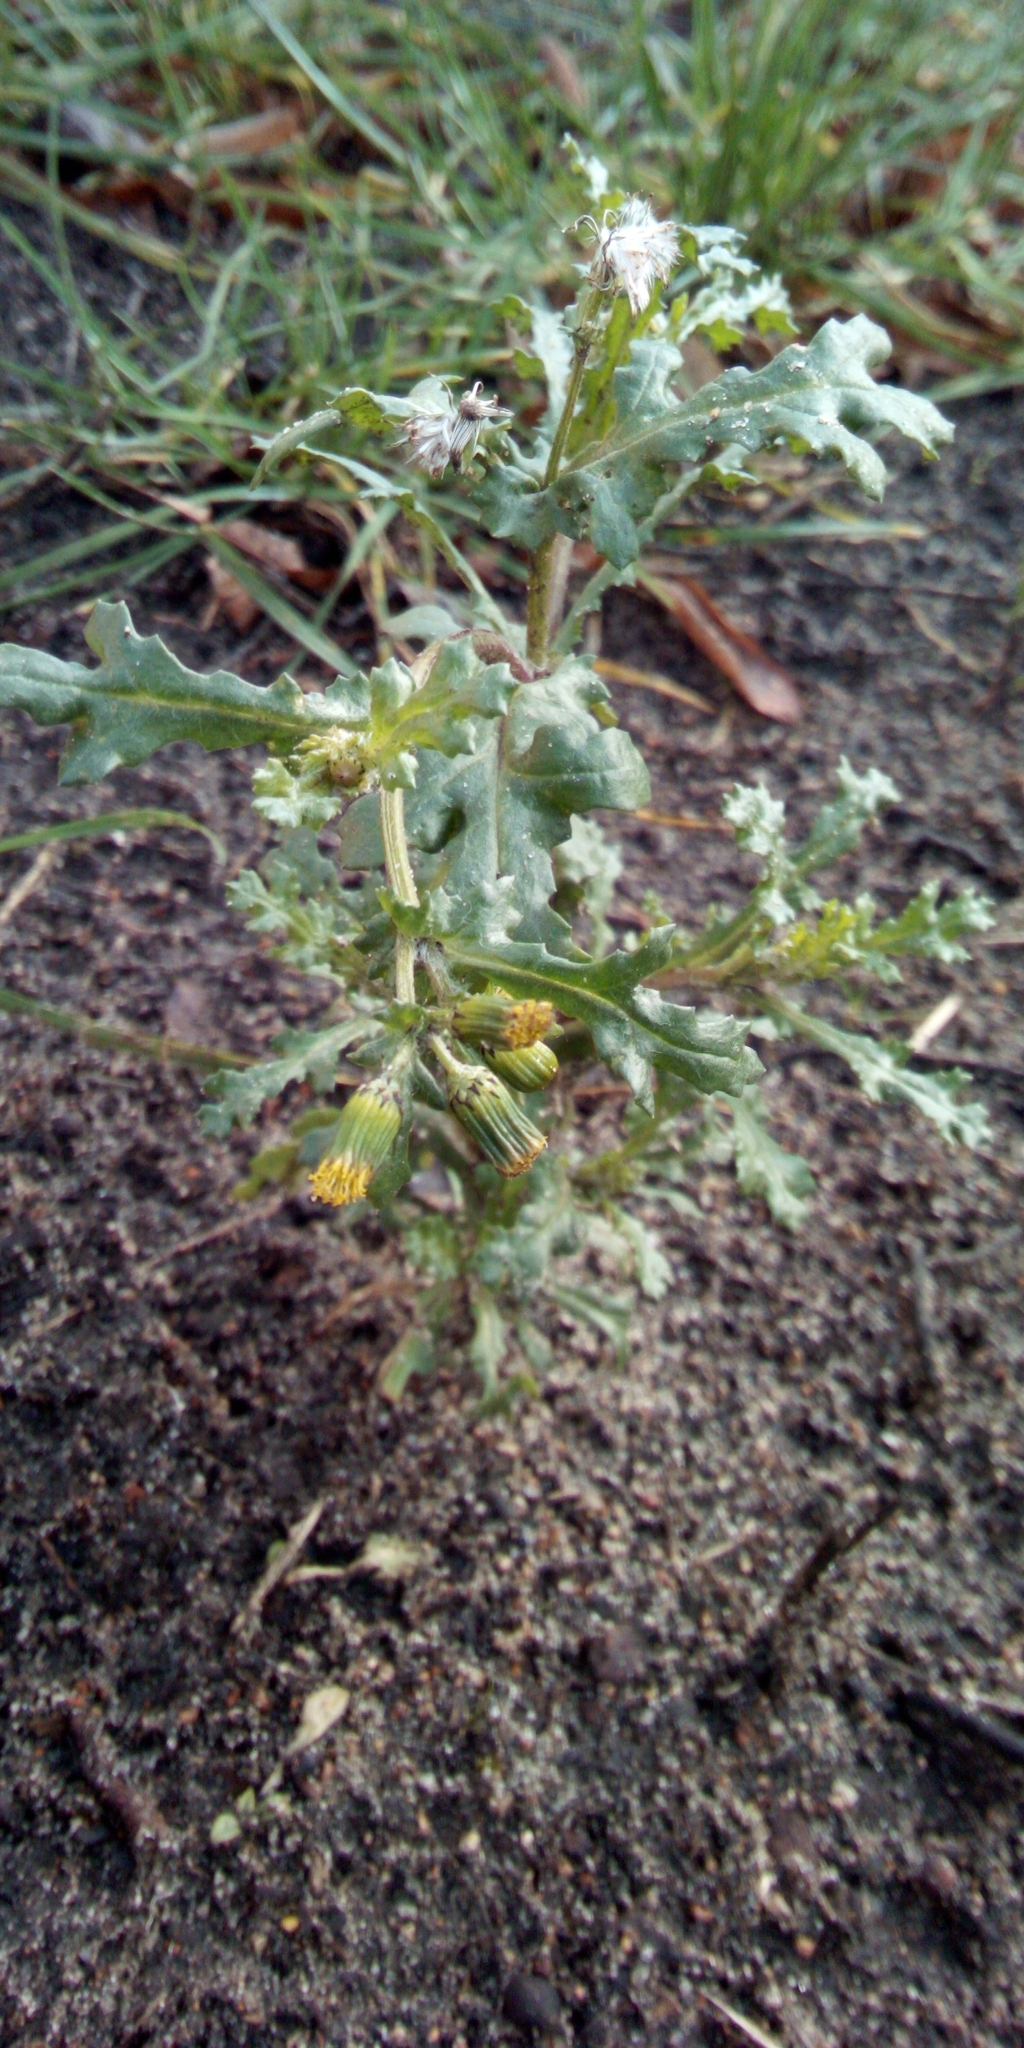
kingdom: Plantae
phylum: Tracheophyta
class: Magnoliopsida
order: Asterales
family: Asteraceae
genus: Senecio
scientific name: Senecio vulgaris
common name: Old-man-in-the-spring
